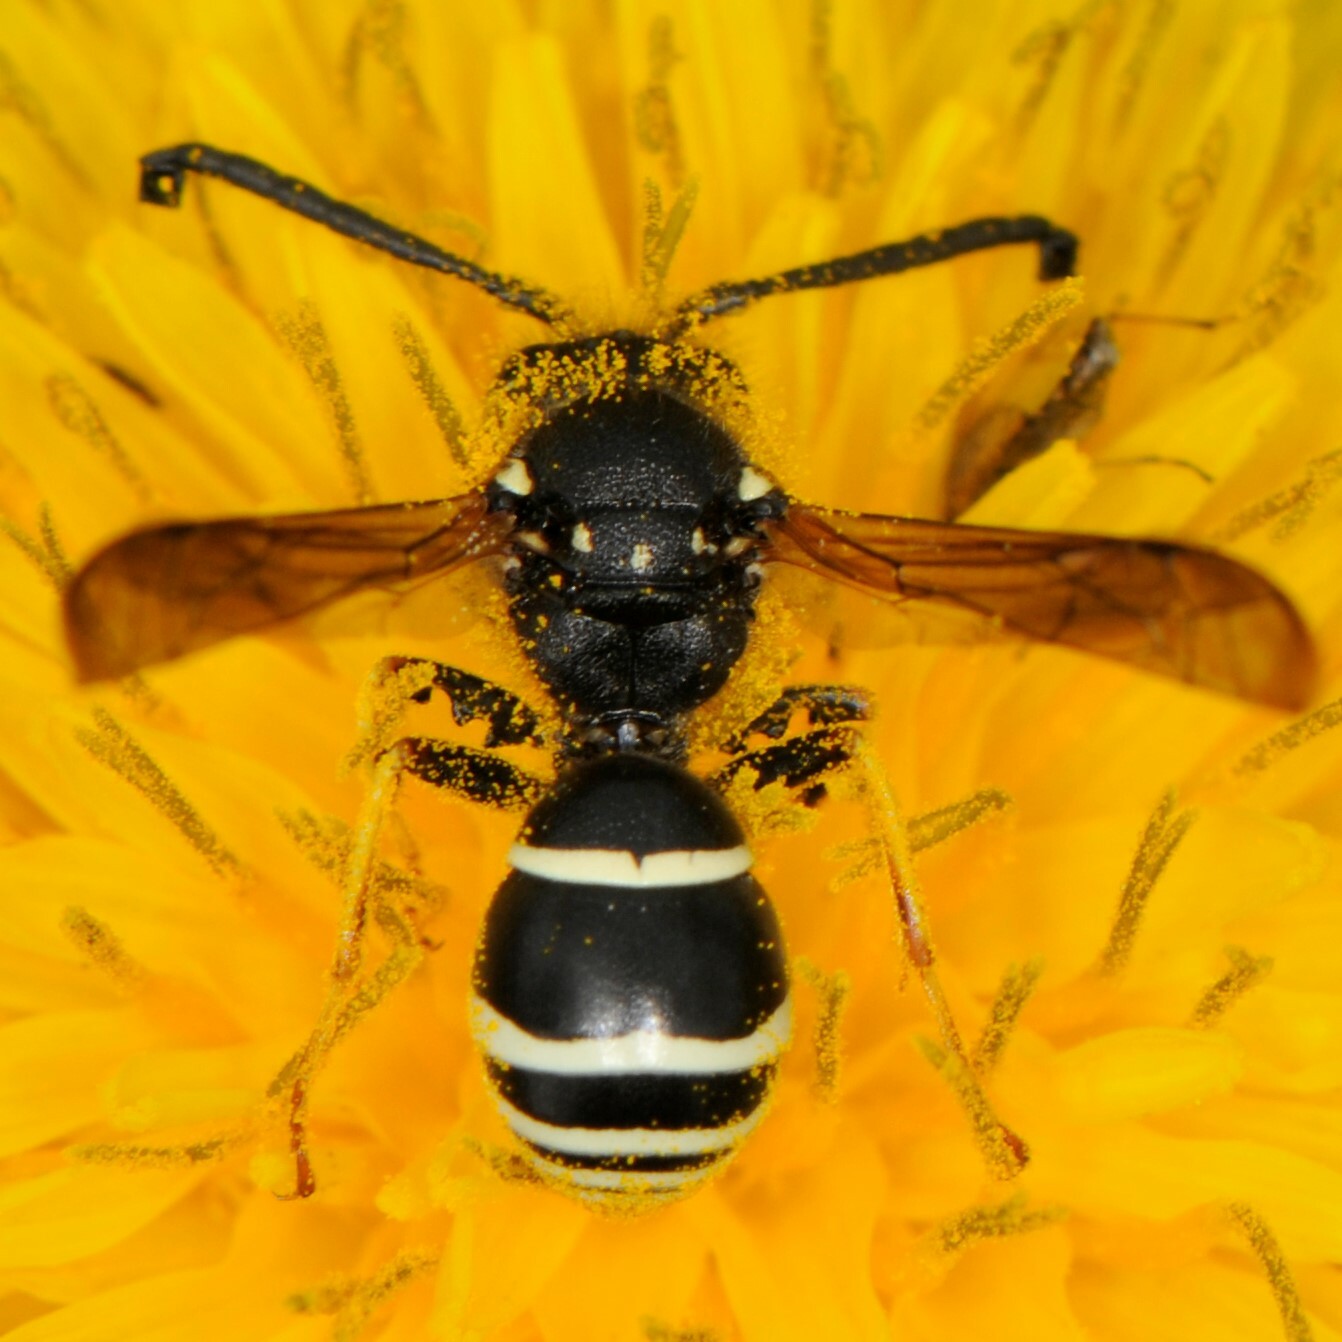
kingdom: Animalia
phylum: Arthropoda
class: Insecta
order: Hymenoptera
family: Vespidae
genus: Odynerus
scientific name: Odynerus dilectus
